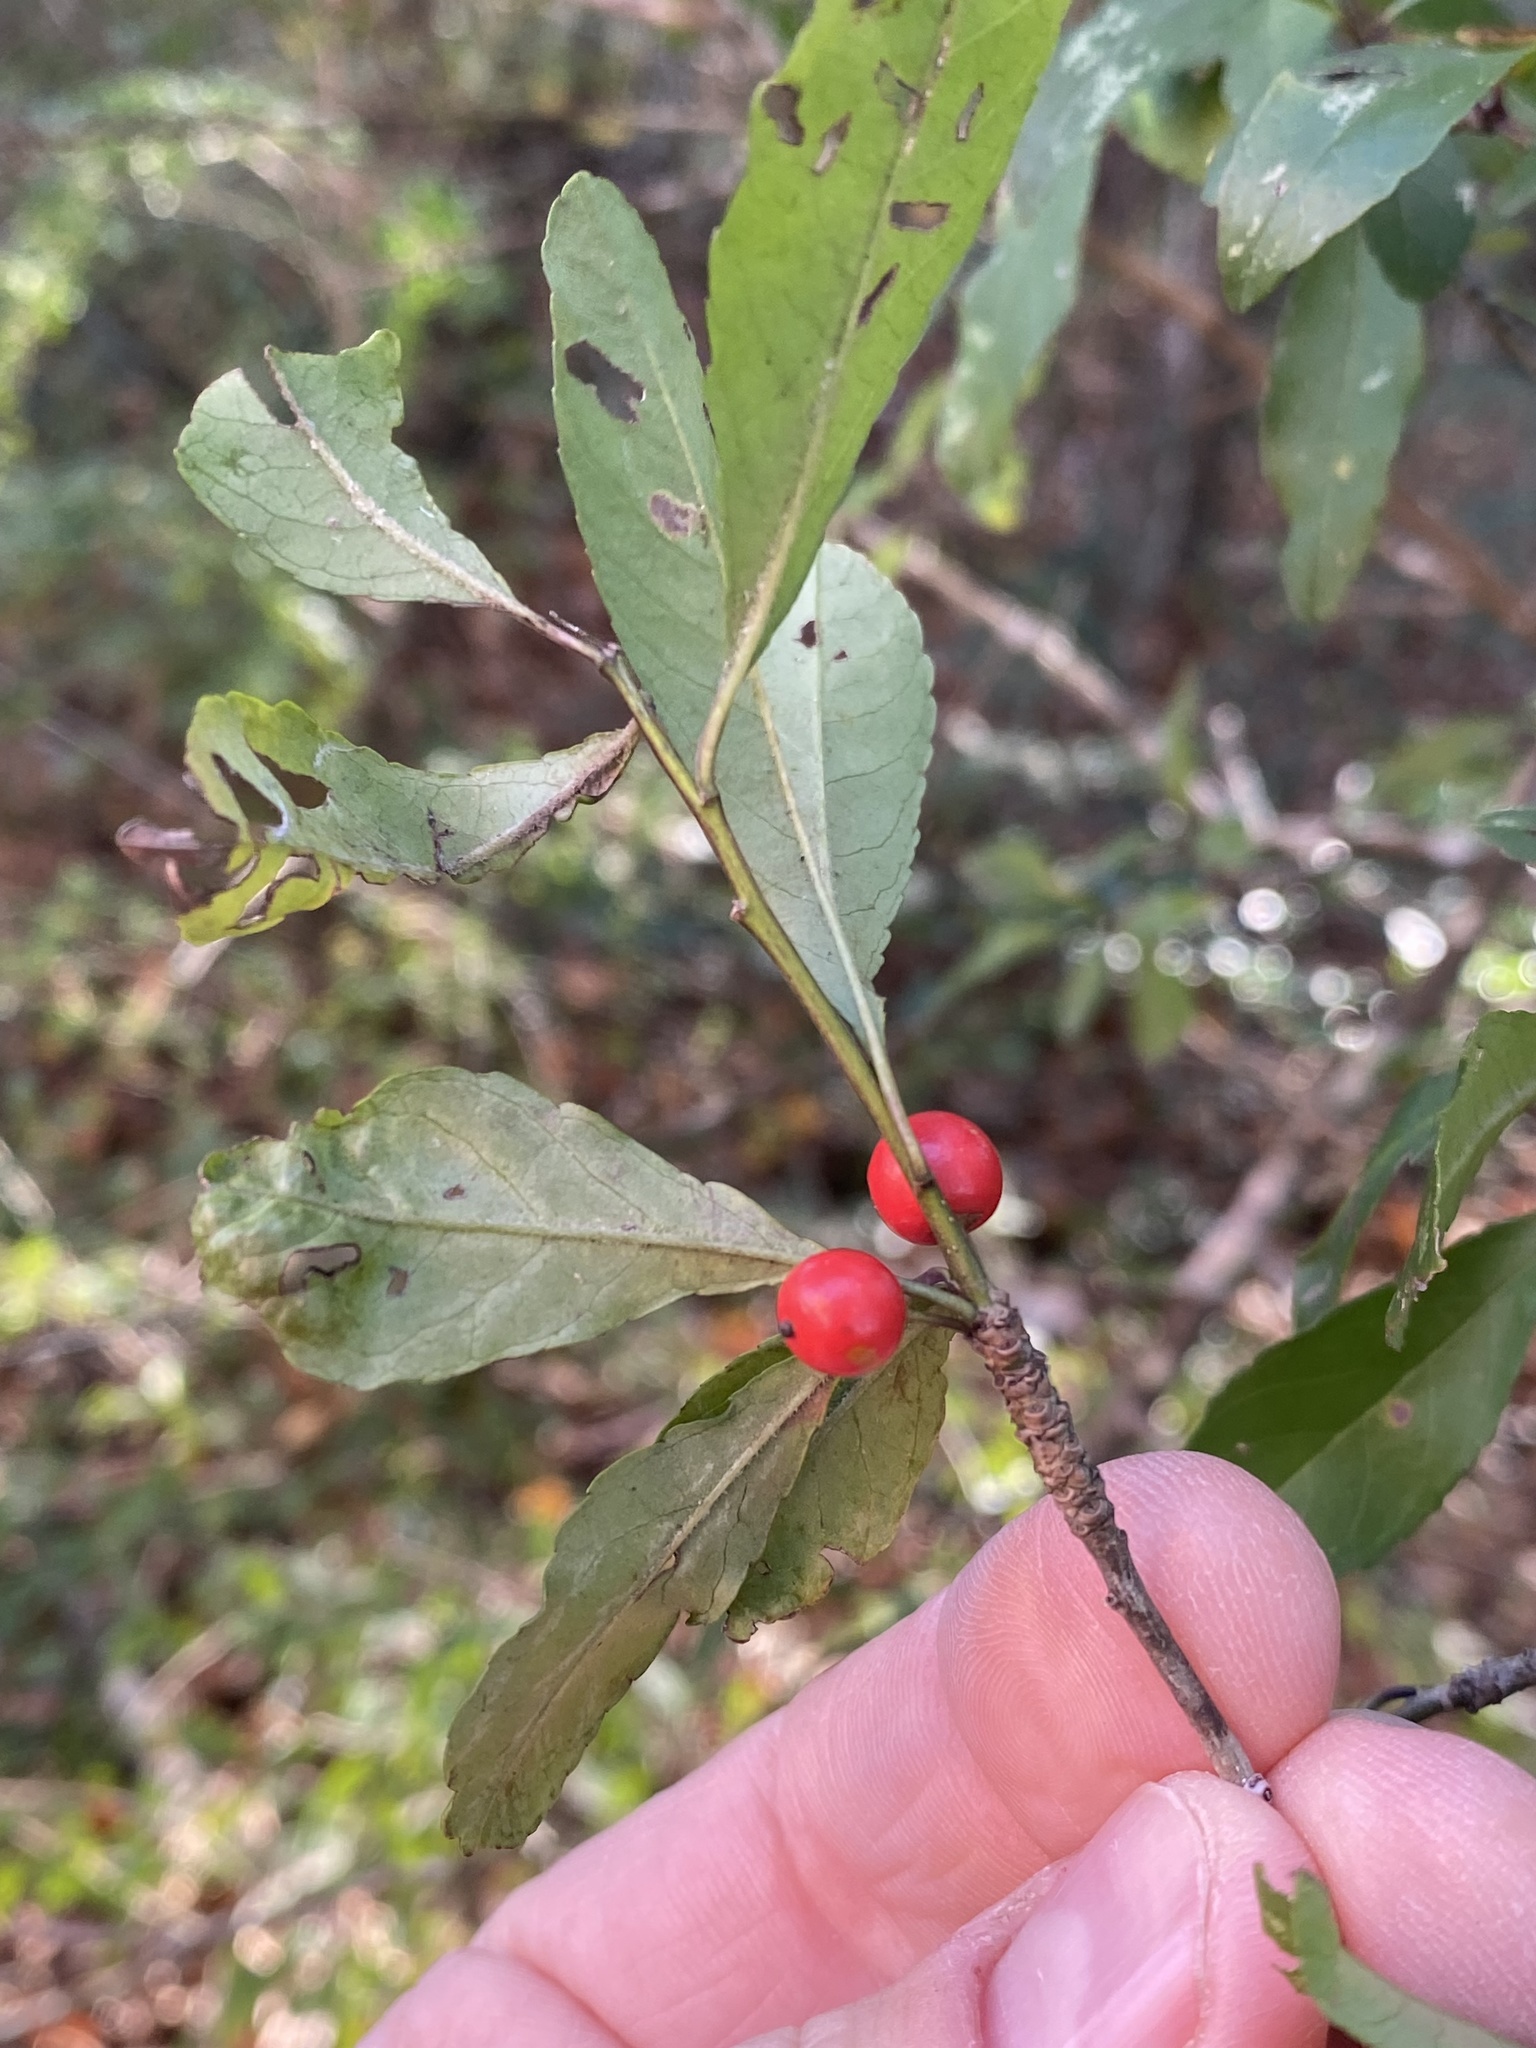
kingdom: Plantae
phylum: Tracheophyta
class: Magnoliopsida
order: Aquifoliales
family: Aquifoliaceae
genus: Ilex
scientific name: Ilex decidua
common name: Possum-haw
